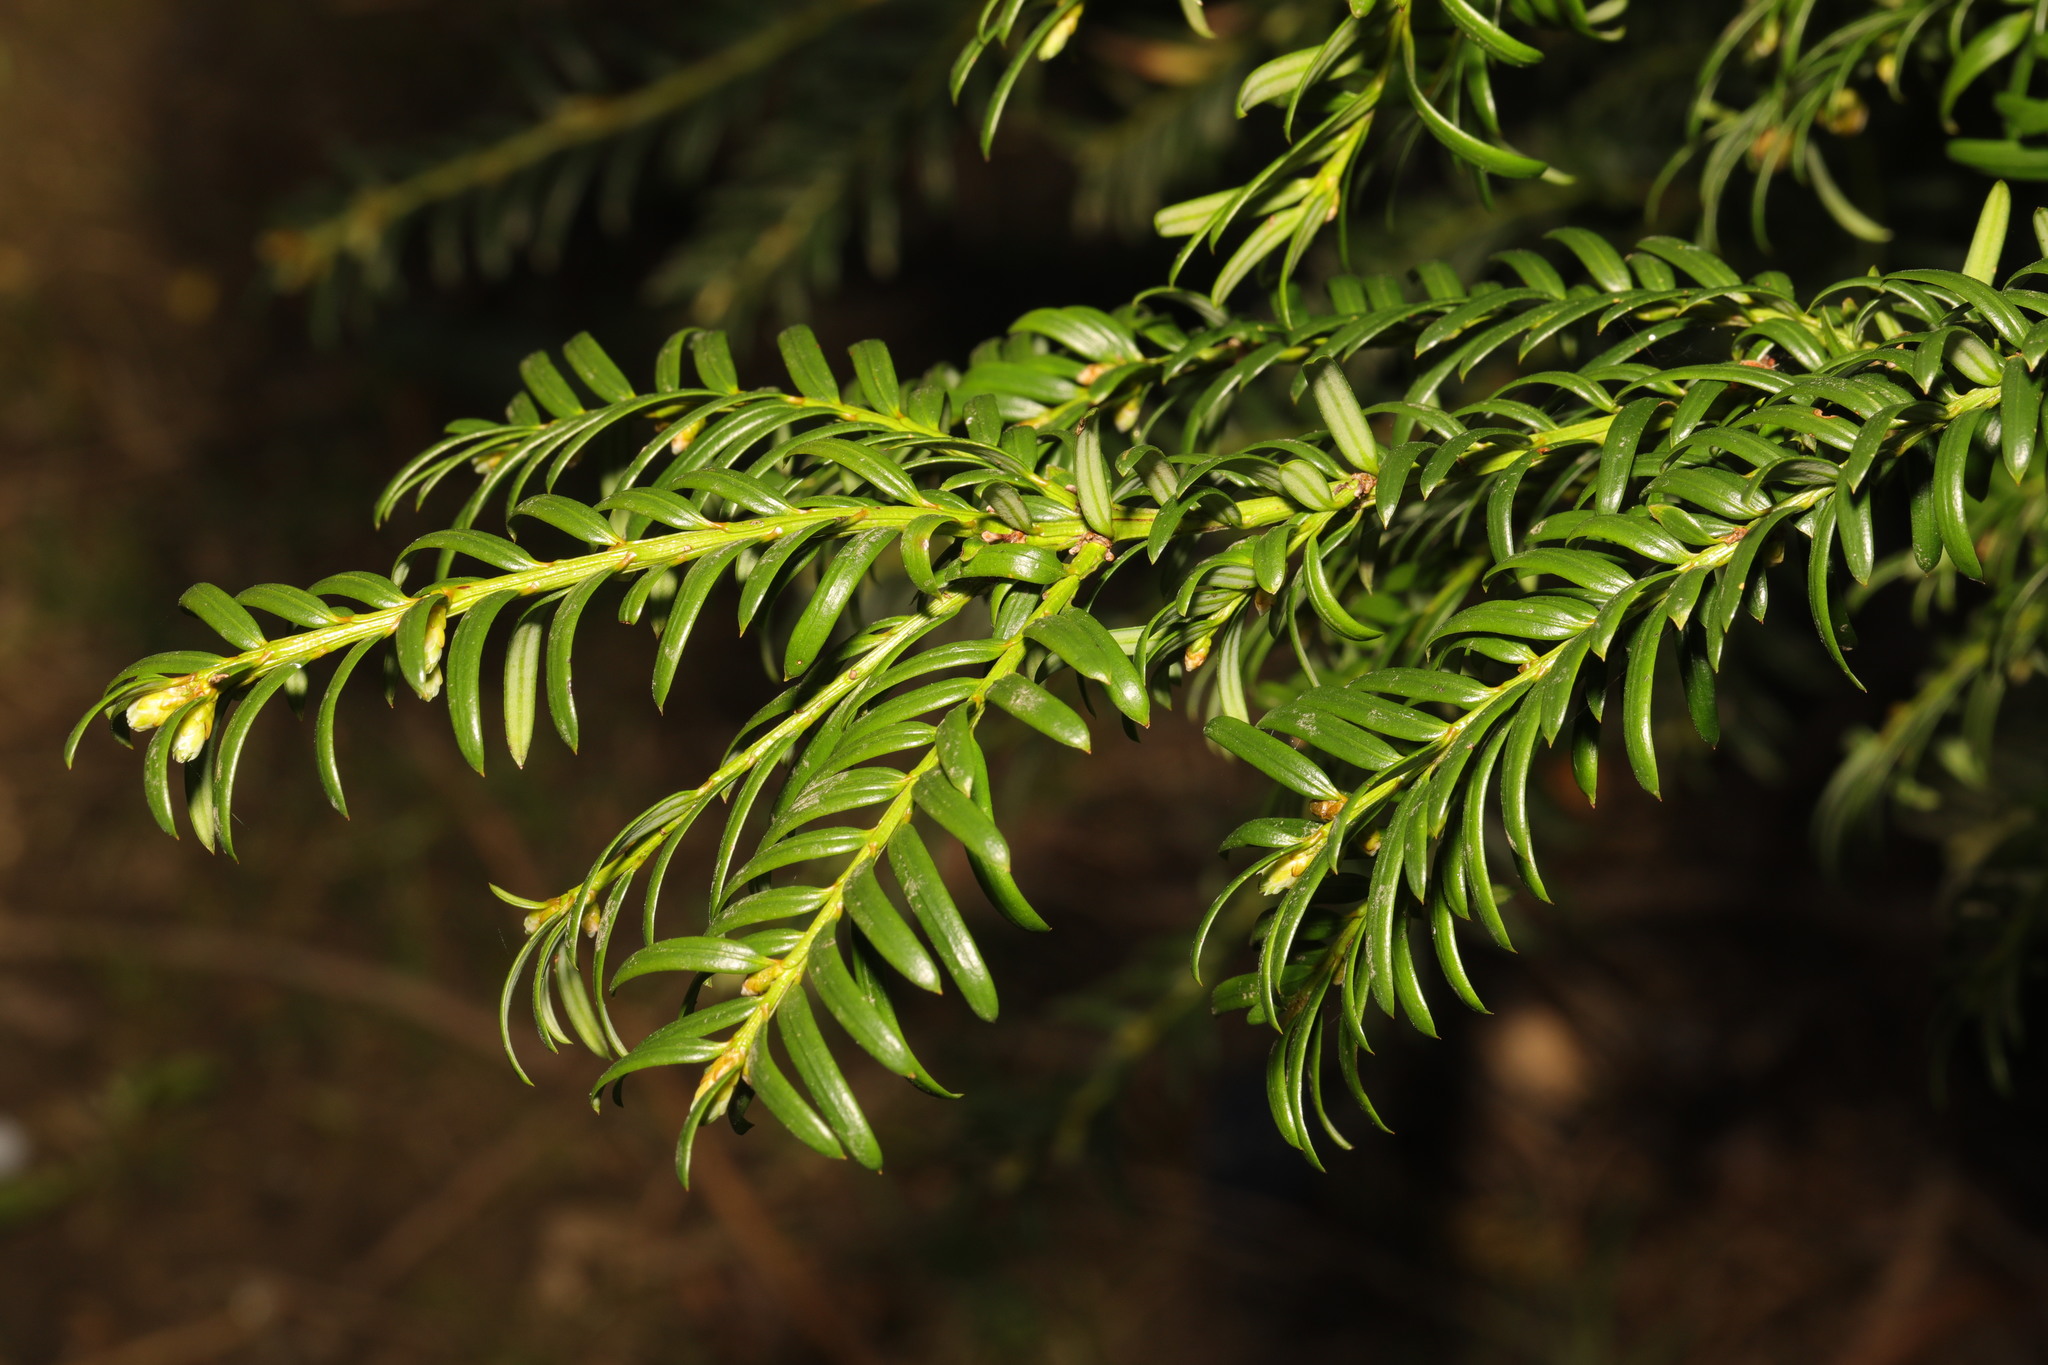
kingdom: Plantae
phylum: Tracheophyta
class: Pinopsida
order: Pinales
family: Taxaceae
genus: Taxus
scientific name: Taxus baccata
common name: Yew
